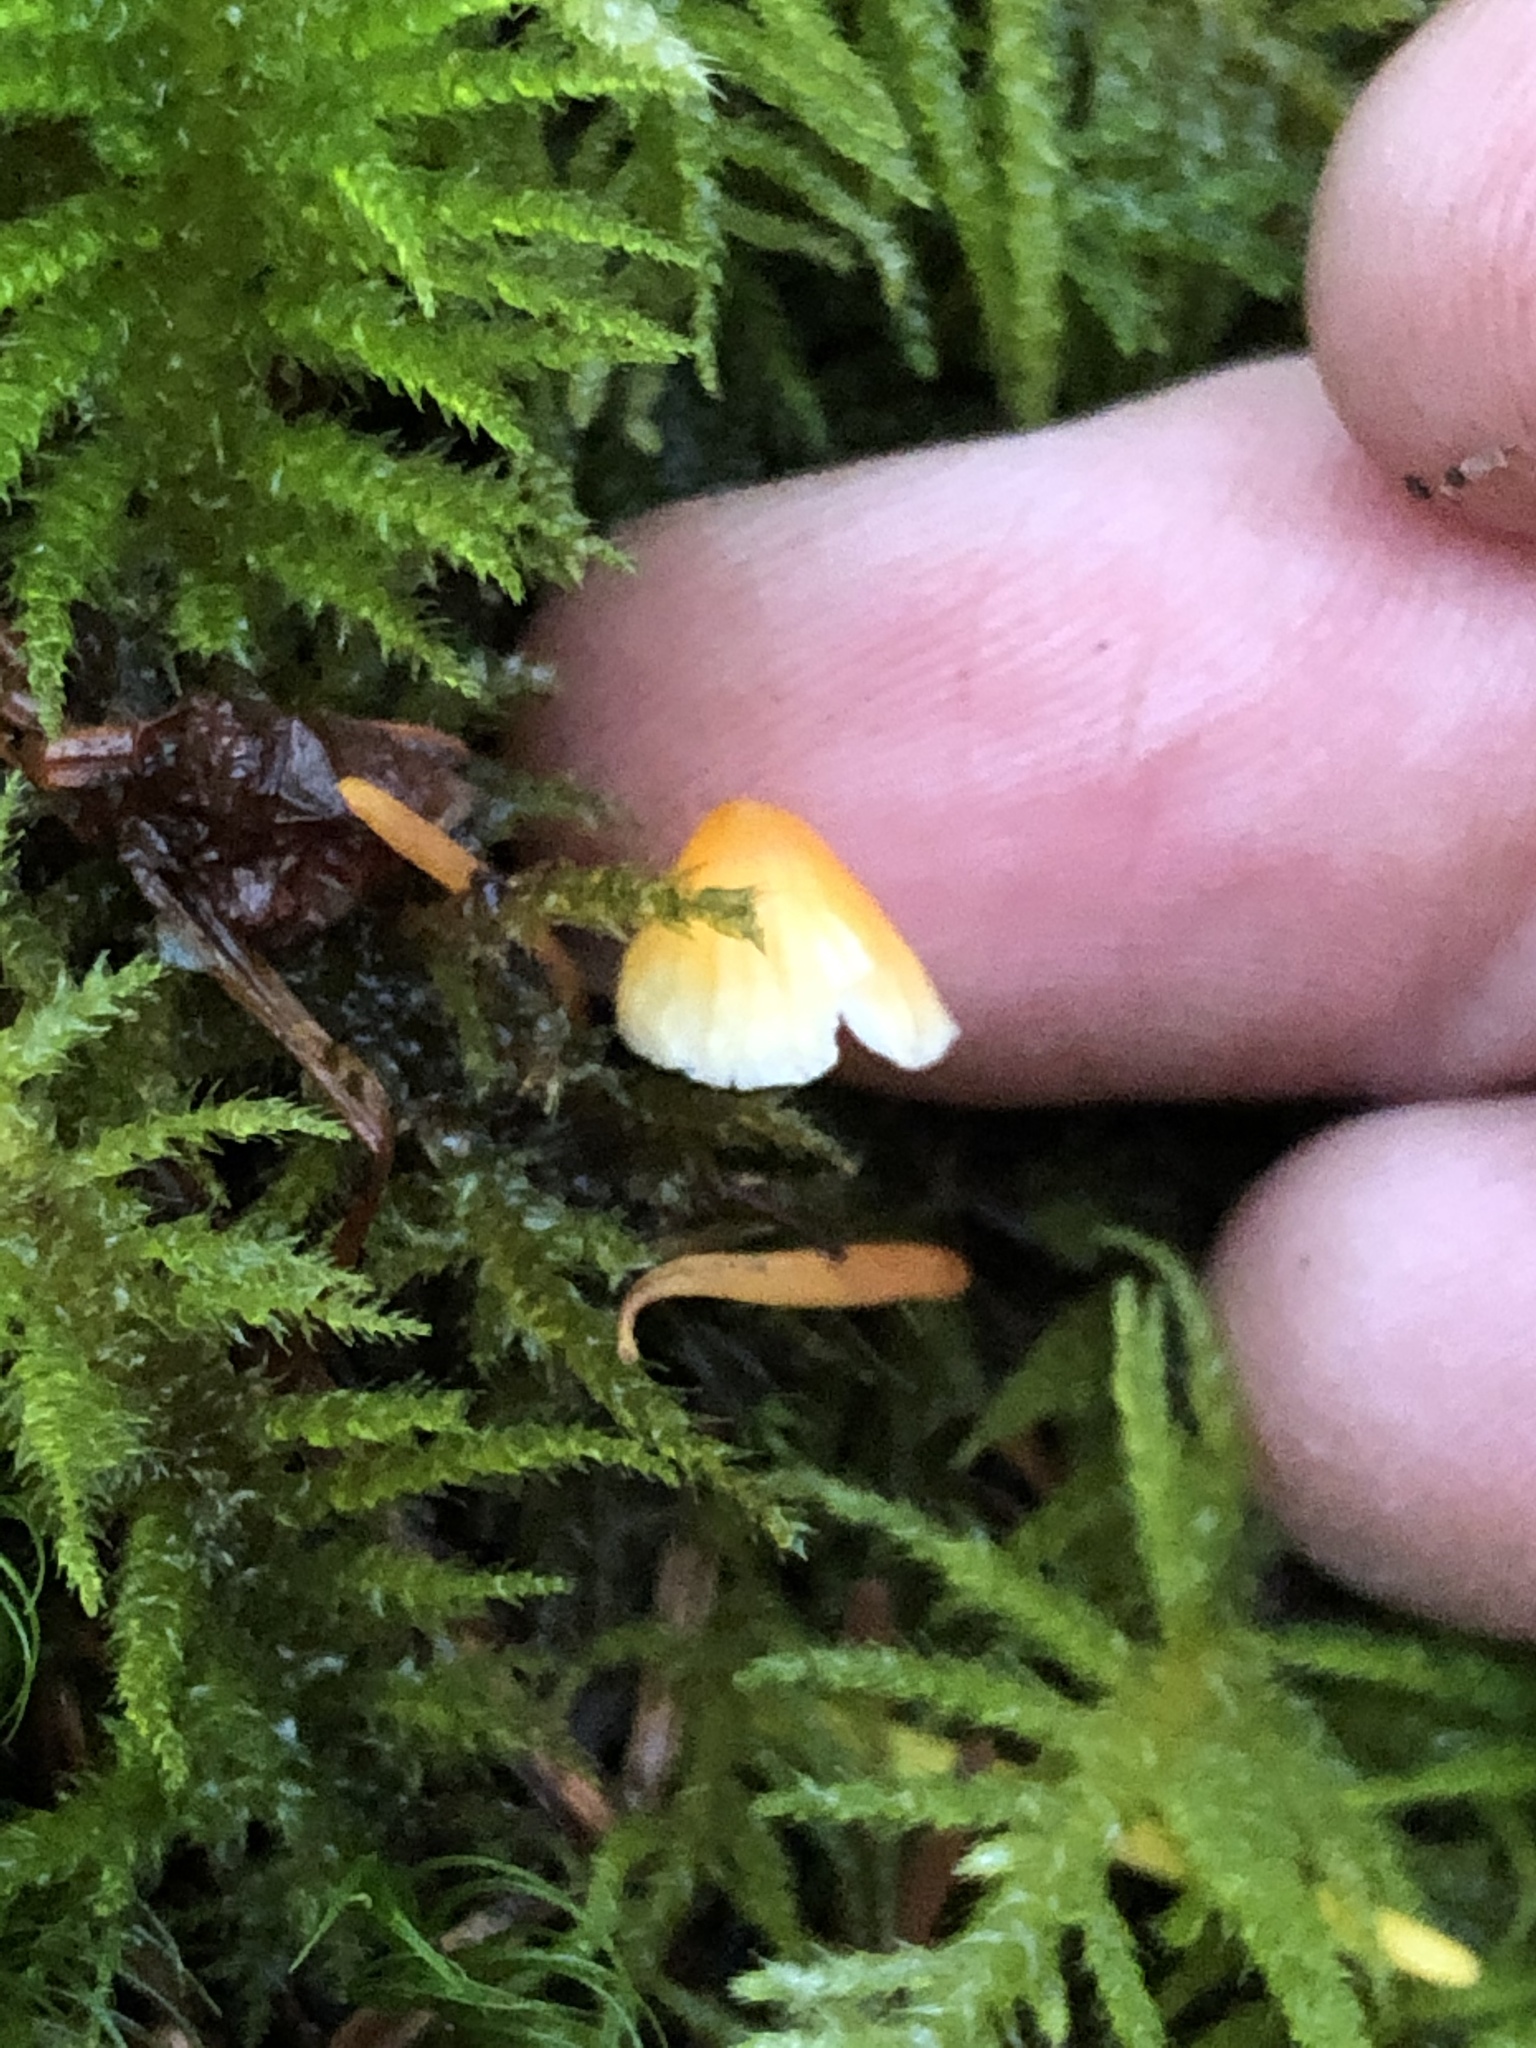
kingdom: Fungi
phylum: Basidiomycota
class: Agaricomycetes
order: Agaricales
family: Mycenaceae
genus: Atheniella
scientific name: Atheniella aurantiidisca
